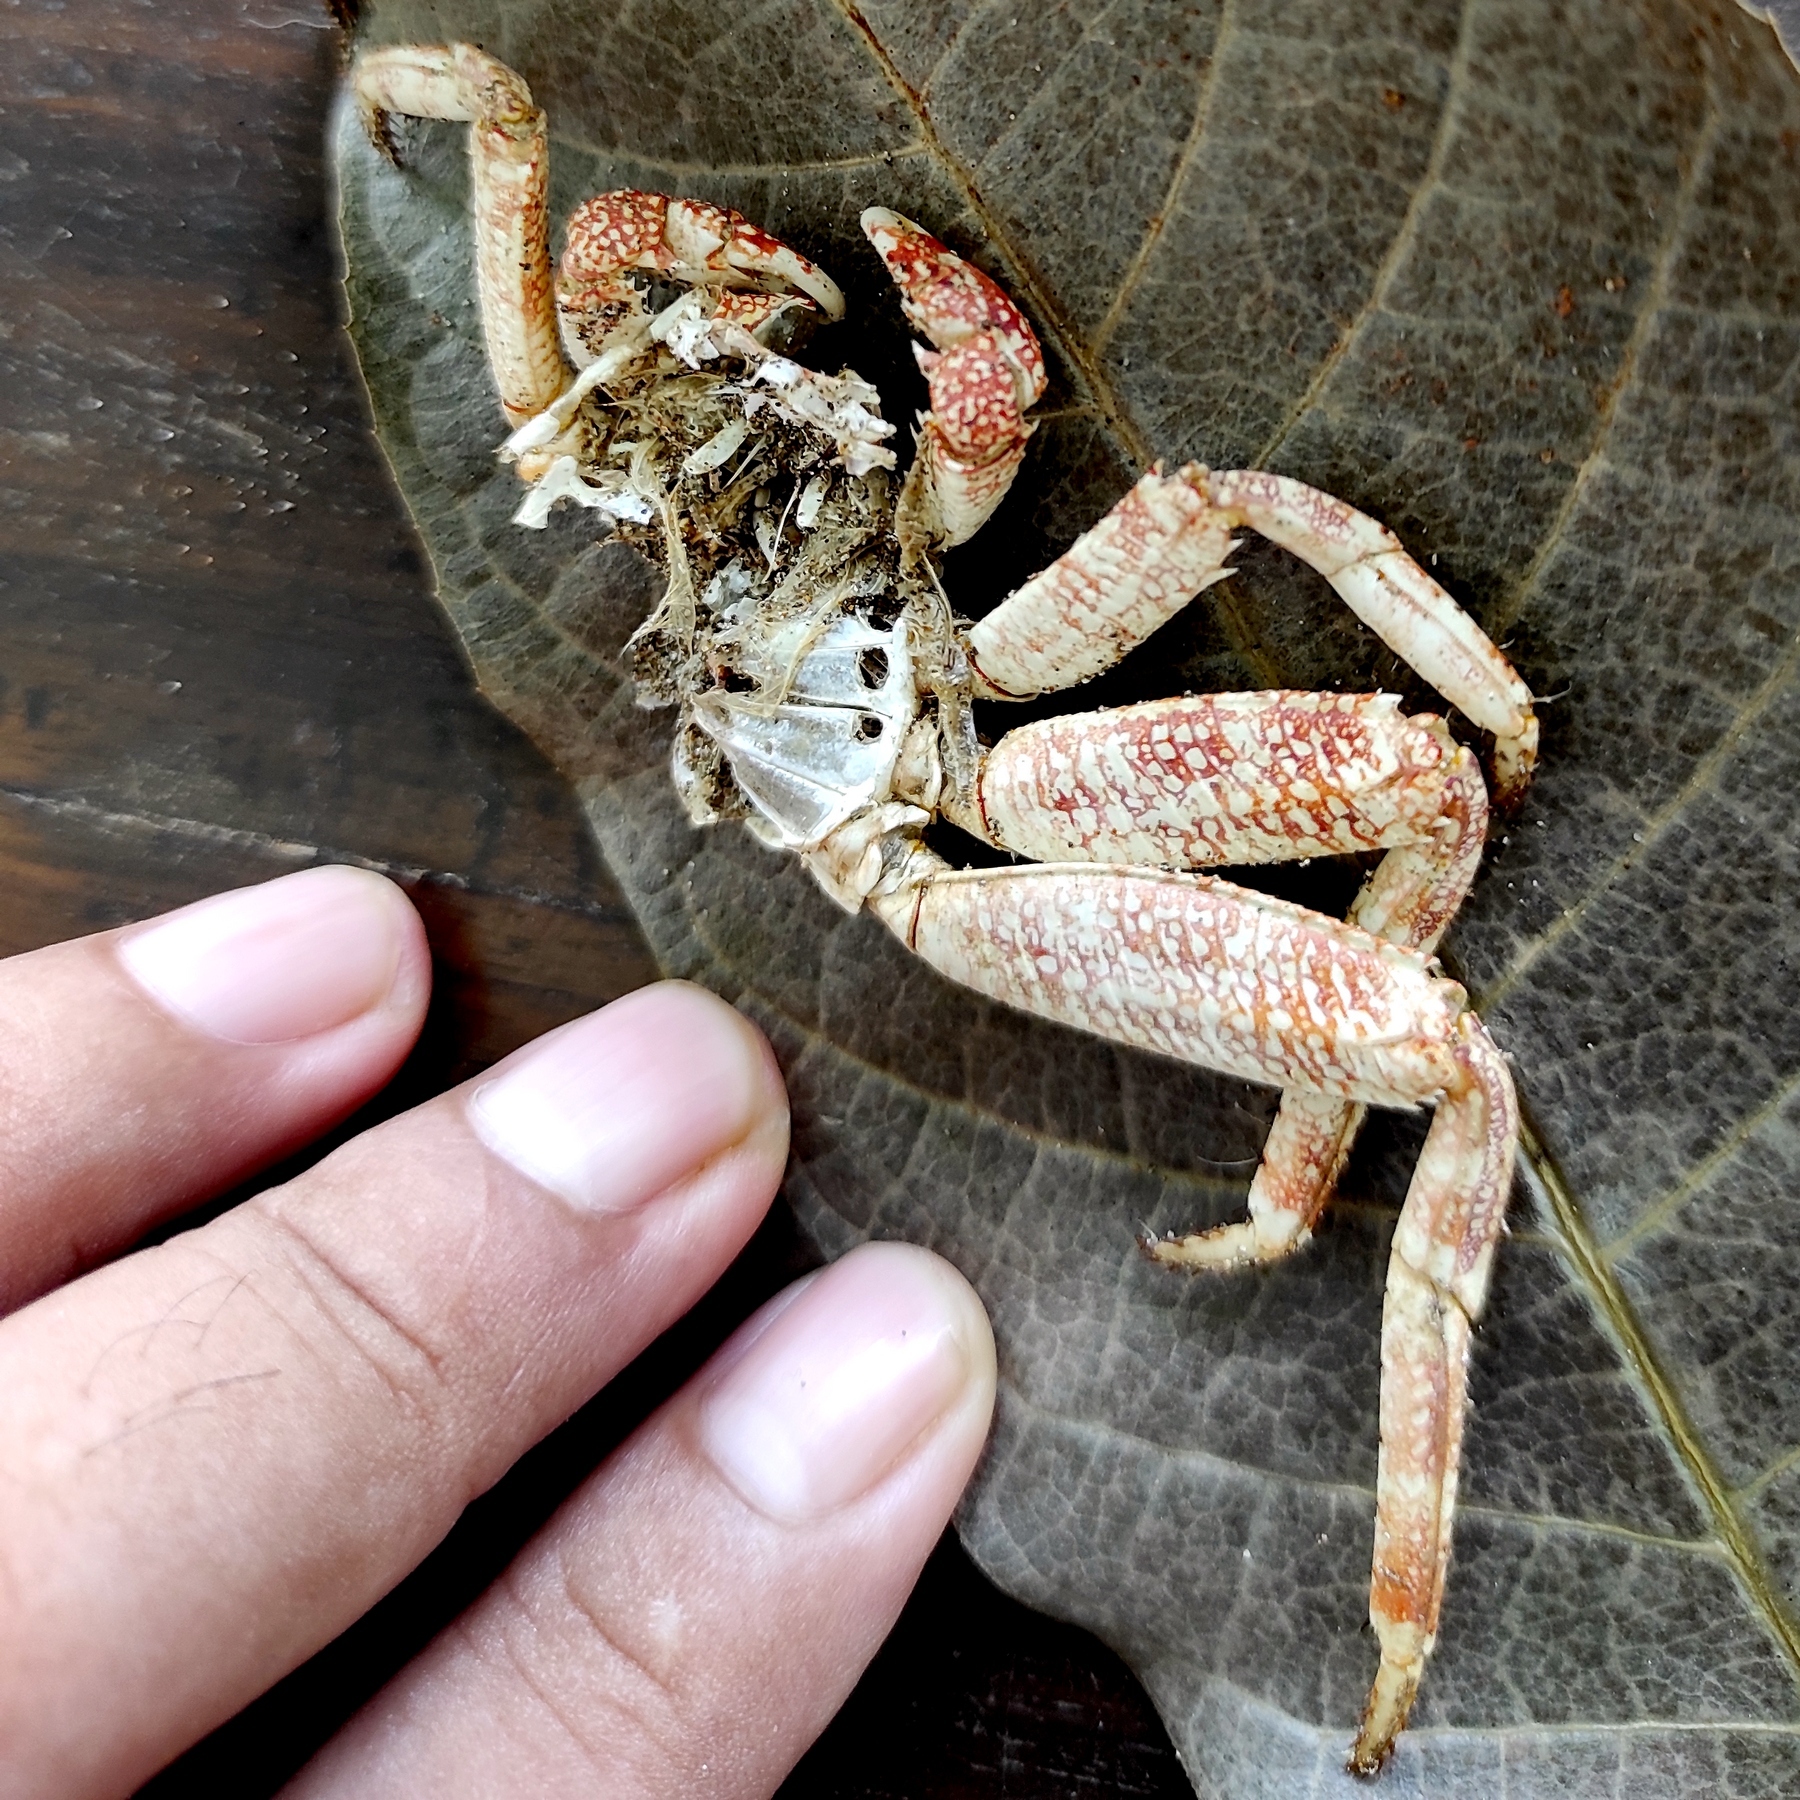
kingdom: Animalia
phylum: Arthropoda
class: Malacostraca
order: Decapoda
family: Grapsidae
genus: Grapsus
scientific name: Grapsus albolineatus
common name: Mottled lightfoot crab
